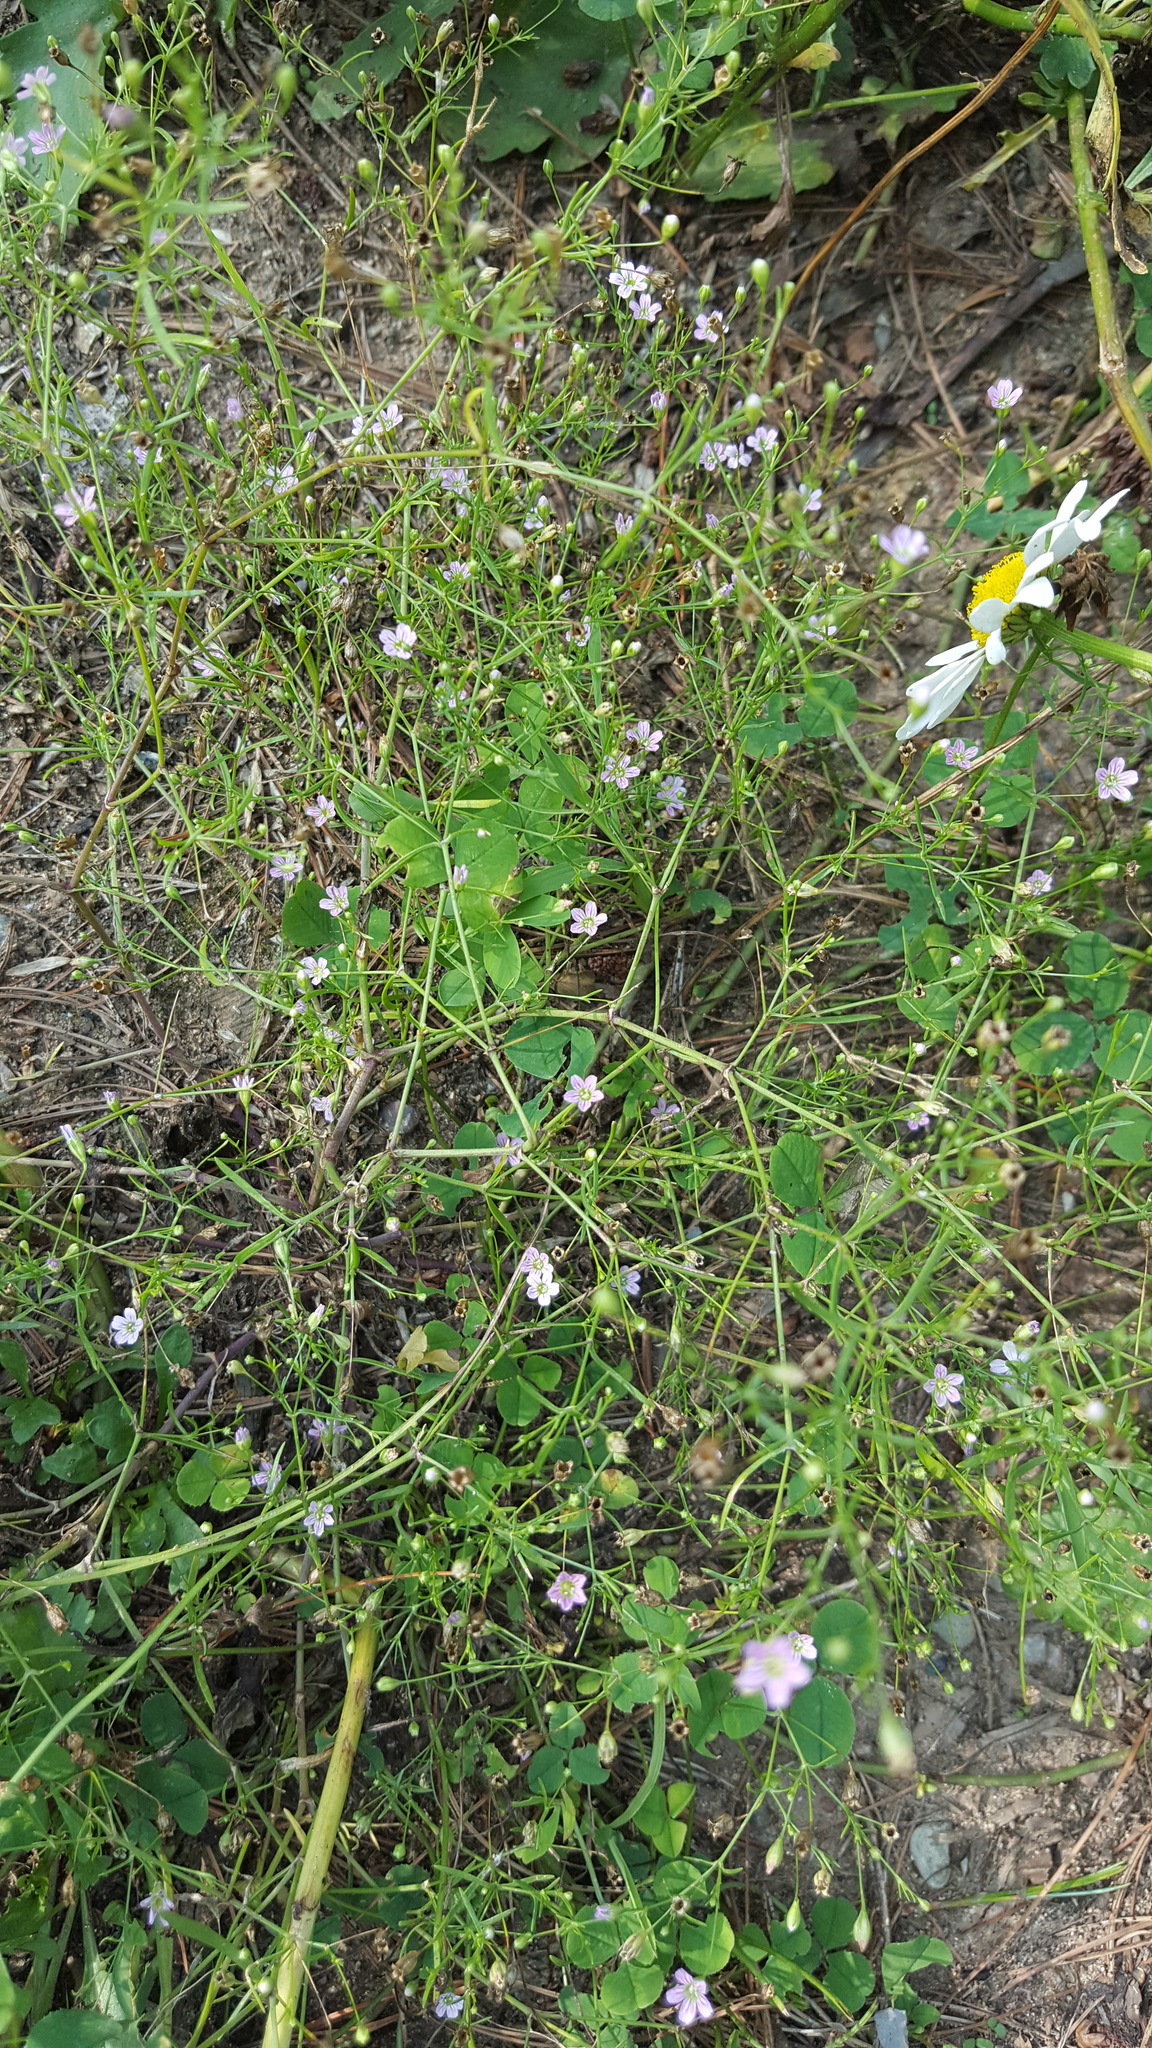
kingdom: Plantae
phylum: Tracheophyta
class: Magnoliopsida
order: Caryophyllales
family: Caryophyllaceae
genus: Psammophiliella
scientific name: Psammophiliella muralis
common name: Cushion baby's-breath
